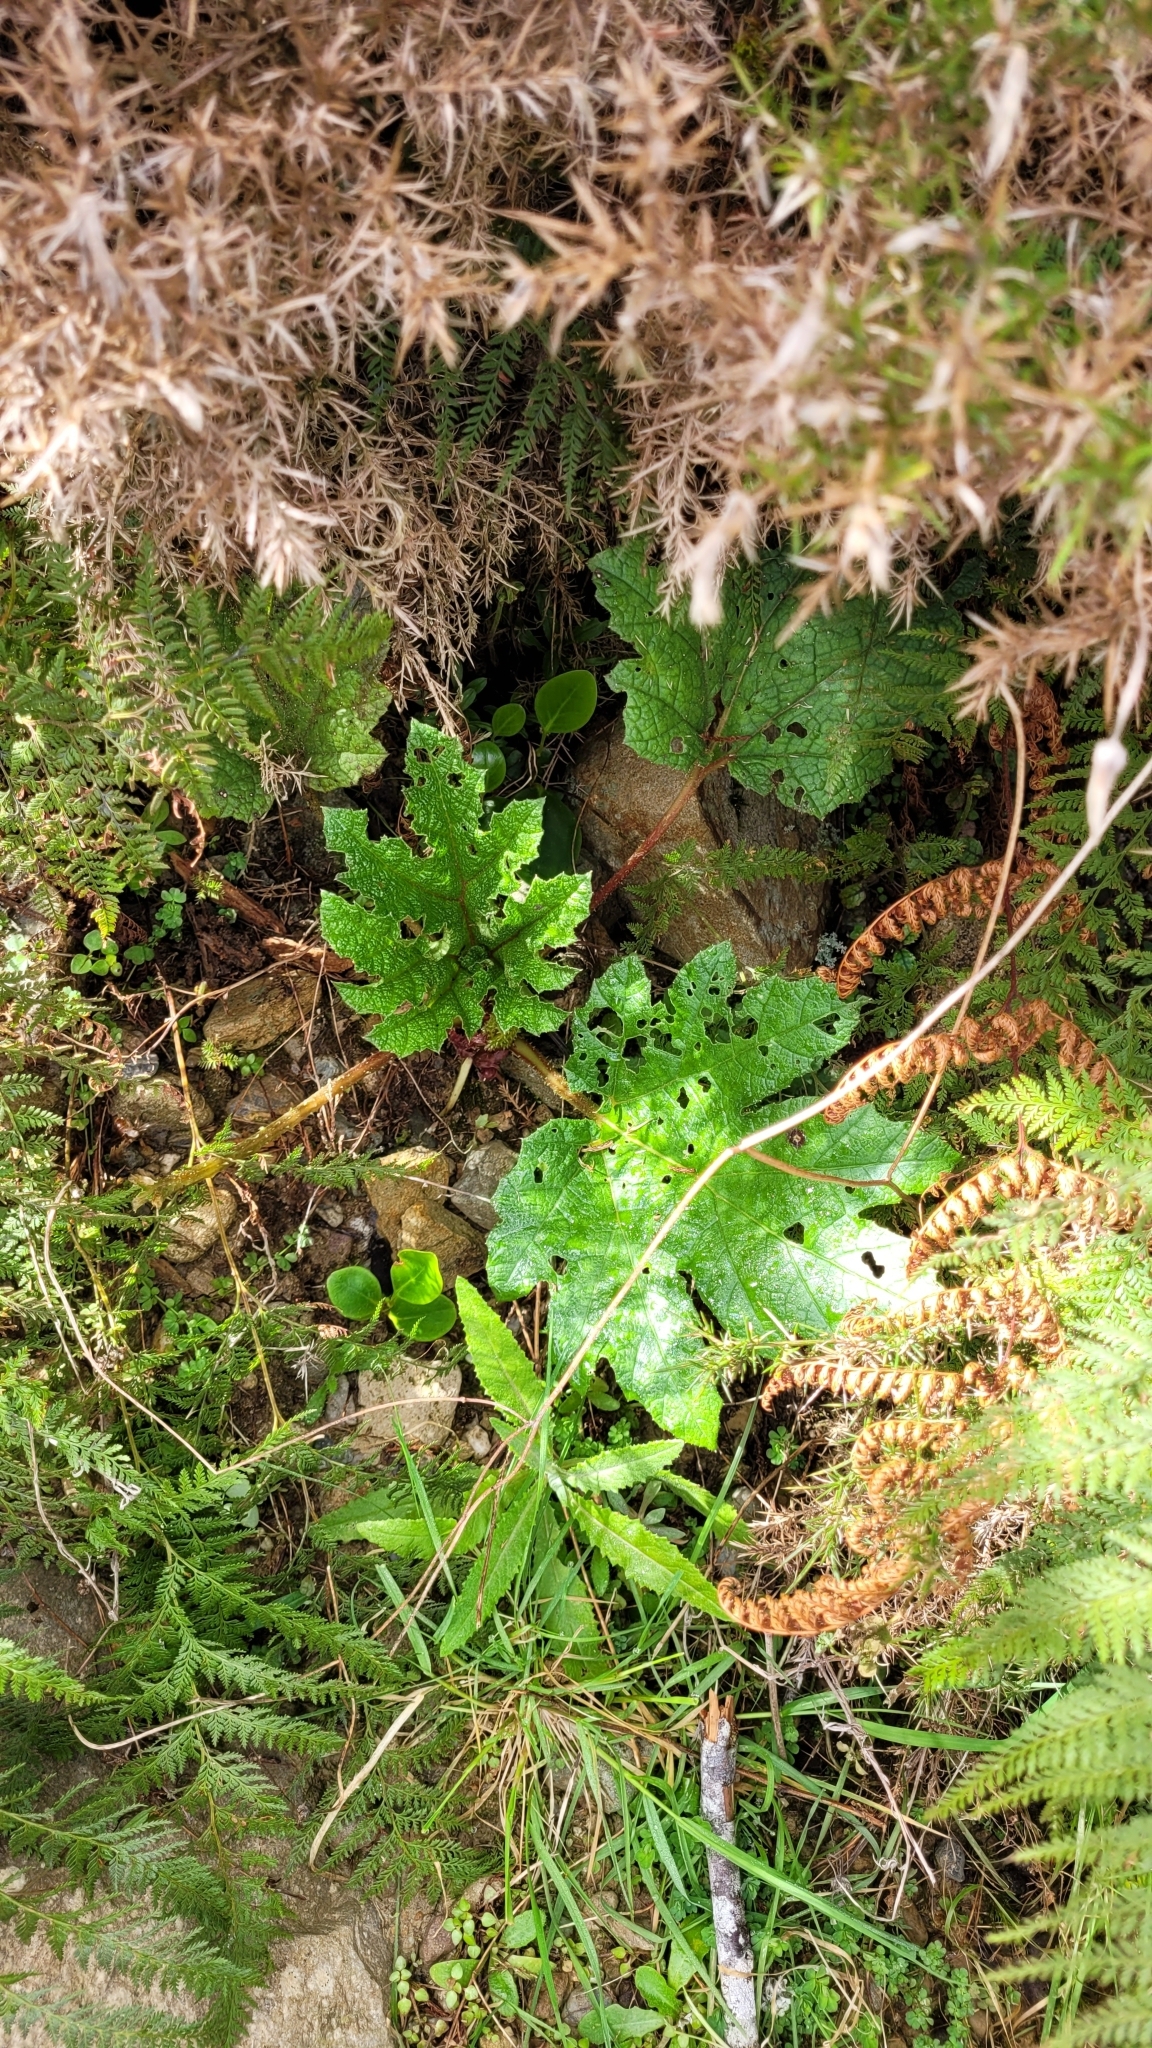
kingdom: Plantae
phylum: Tracheophyta
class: Magnoliopsida
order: Gunnerales
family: Gunneraceae
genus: Gunnera
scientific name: Gunnera tinctoria
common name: Giant-rhubarb
